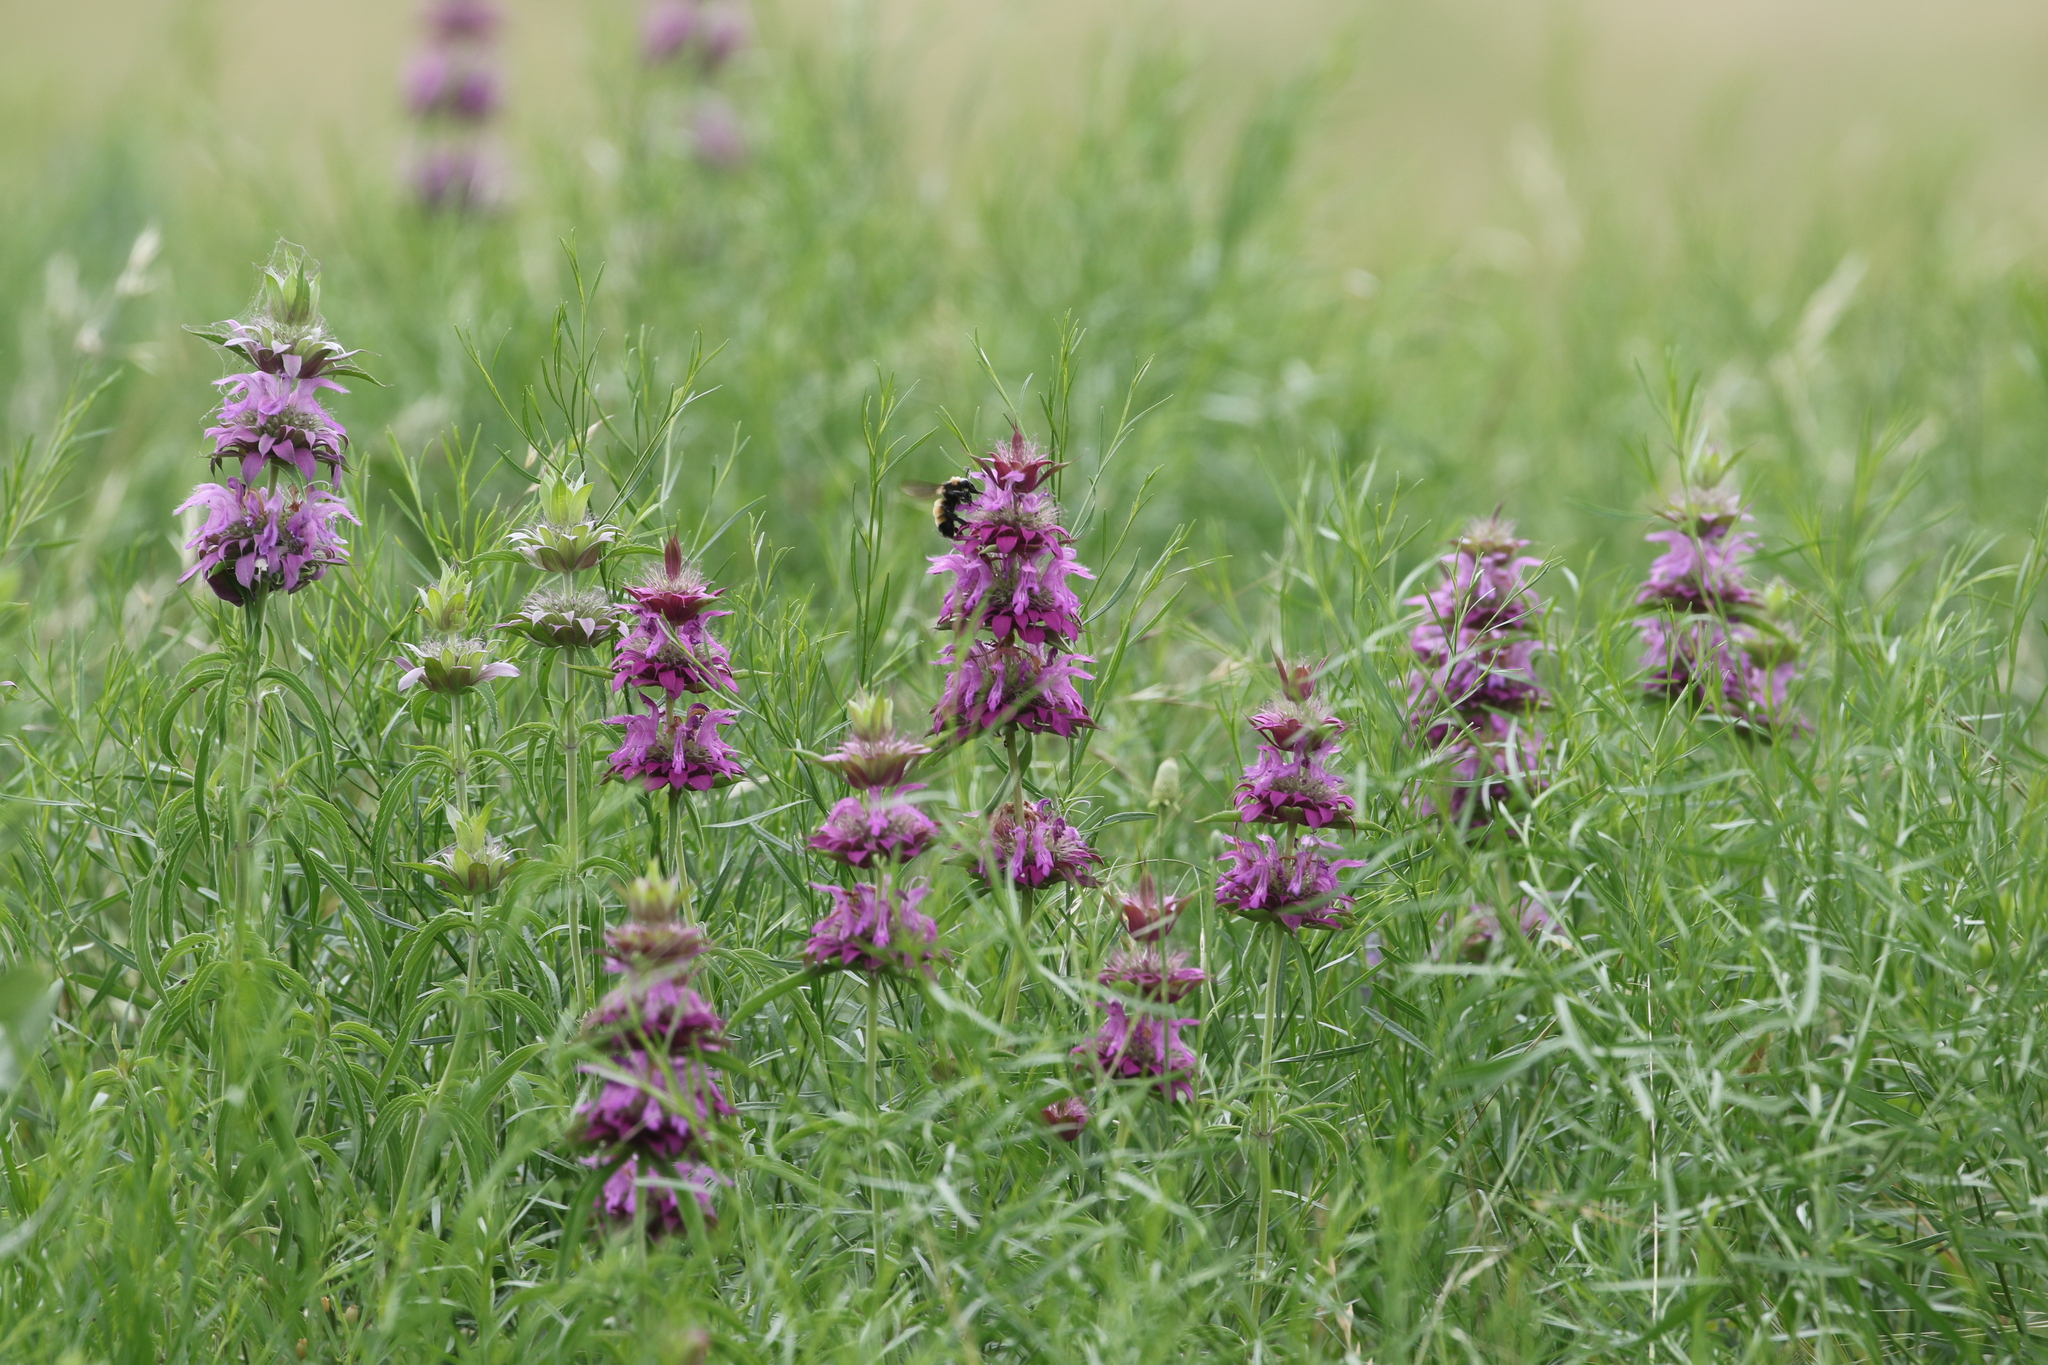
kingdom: Plantae
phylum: Tracheophyta
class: Magnoliopsida
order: Lamiales
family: Lamiaceae
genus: Monarda
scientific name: Monarda citriodora
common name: Lemon beebalm
